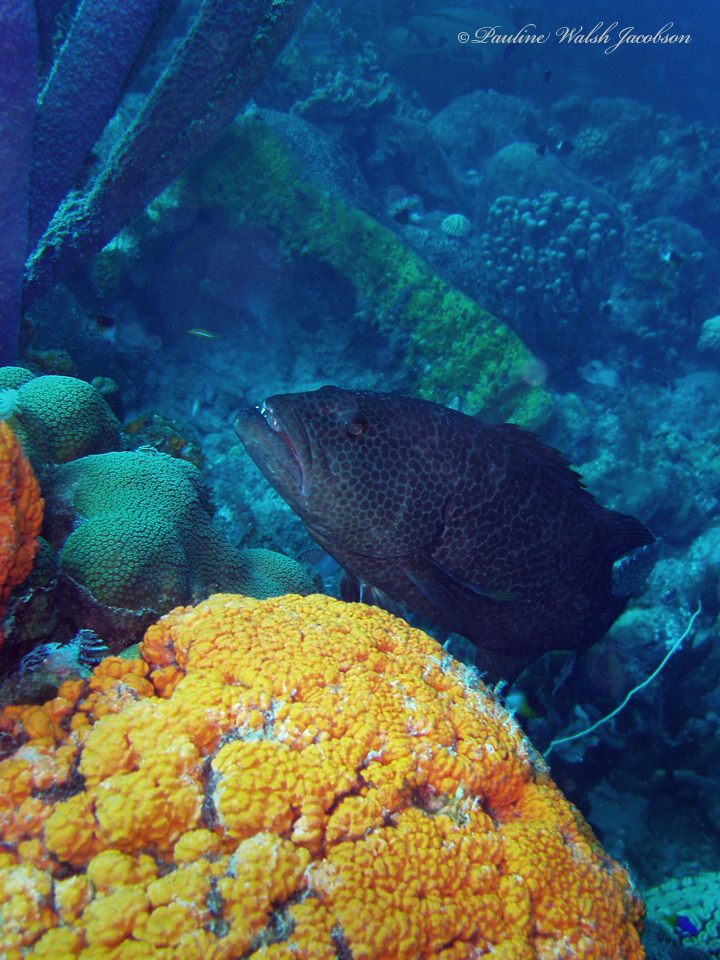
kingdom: Animalia
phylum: Chordata
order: Perciformes
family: Serranidae
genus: Mycteroperca
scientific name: Mycteroperca tigris
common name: Tiger grouper
